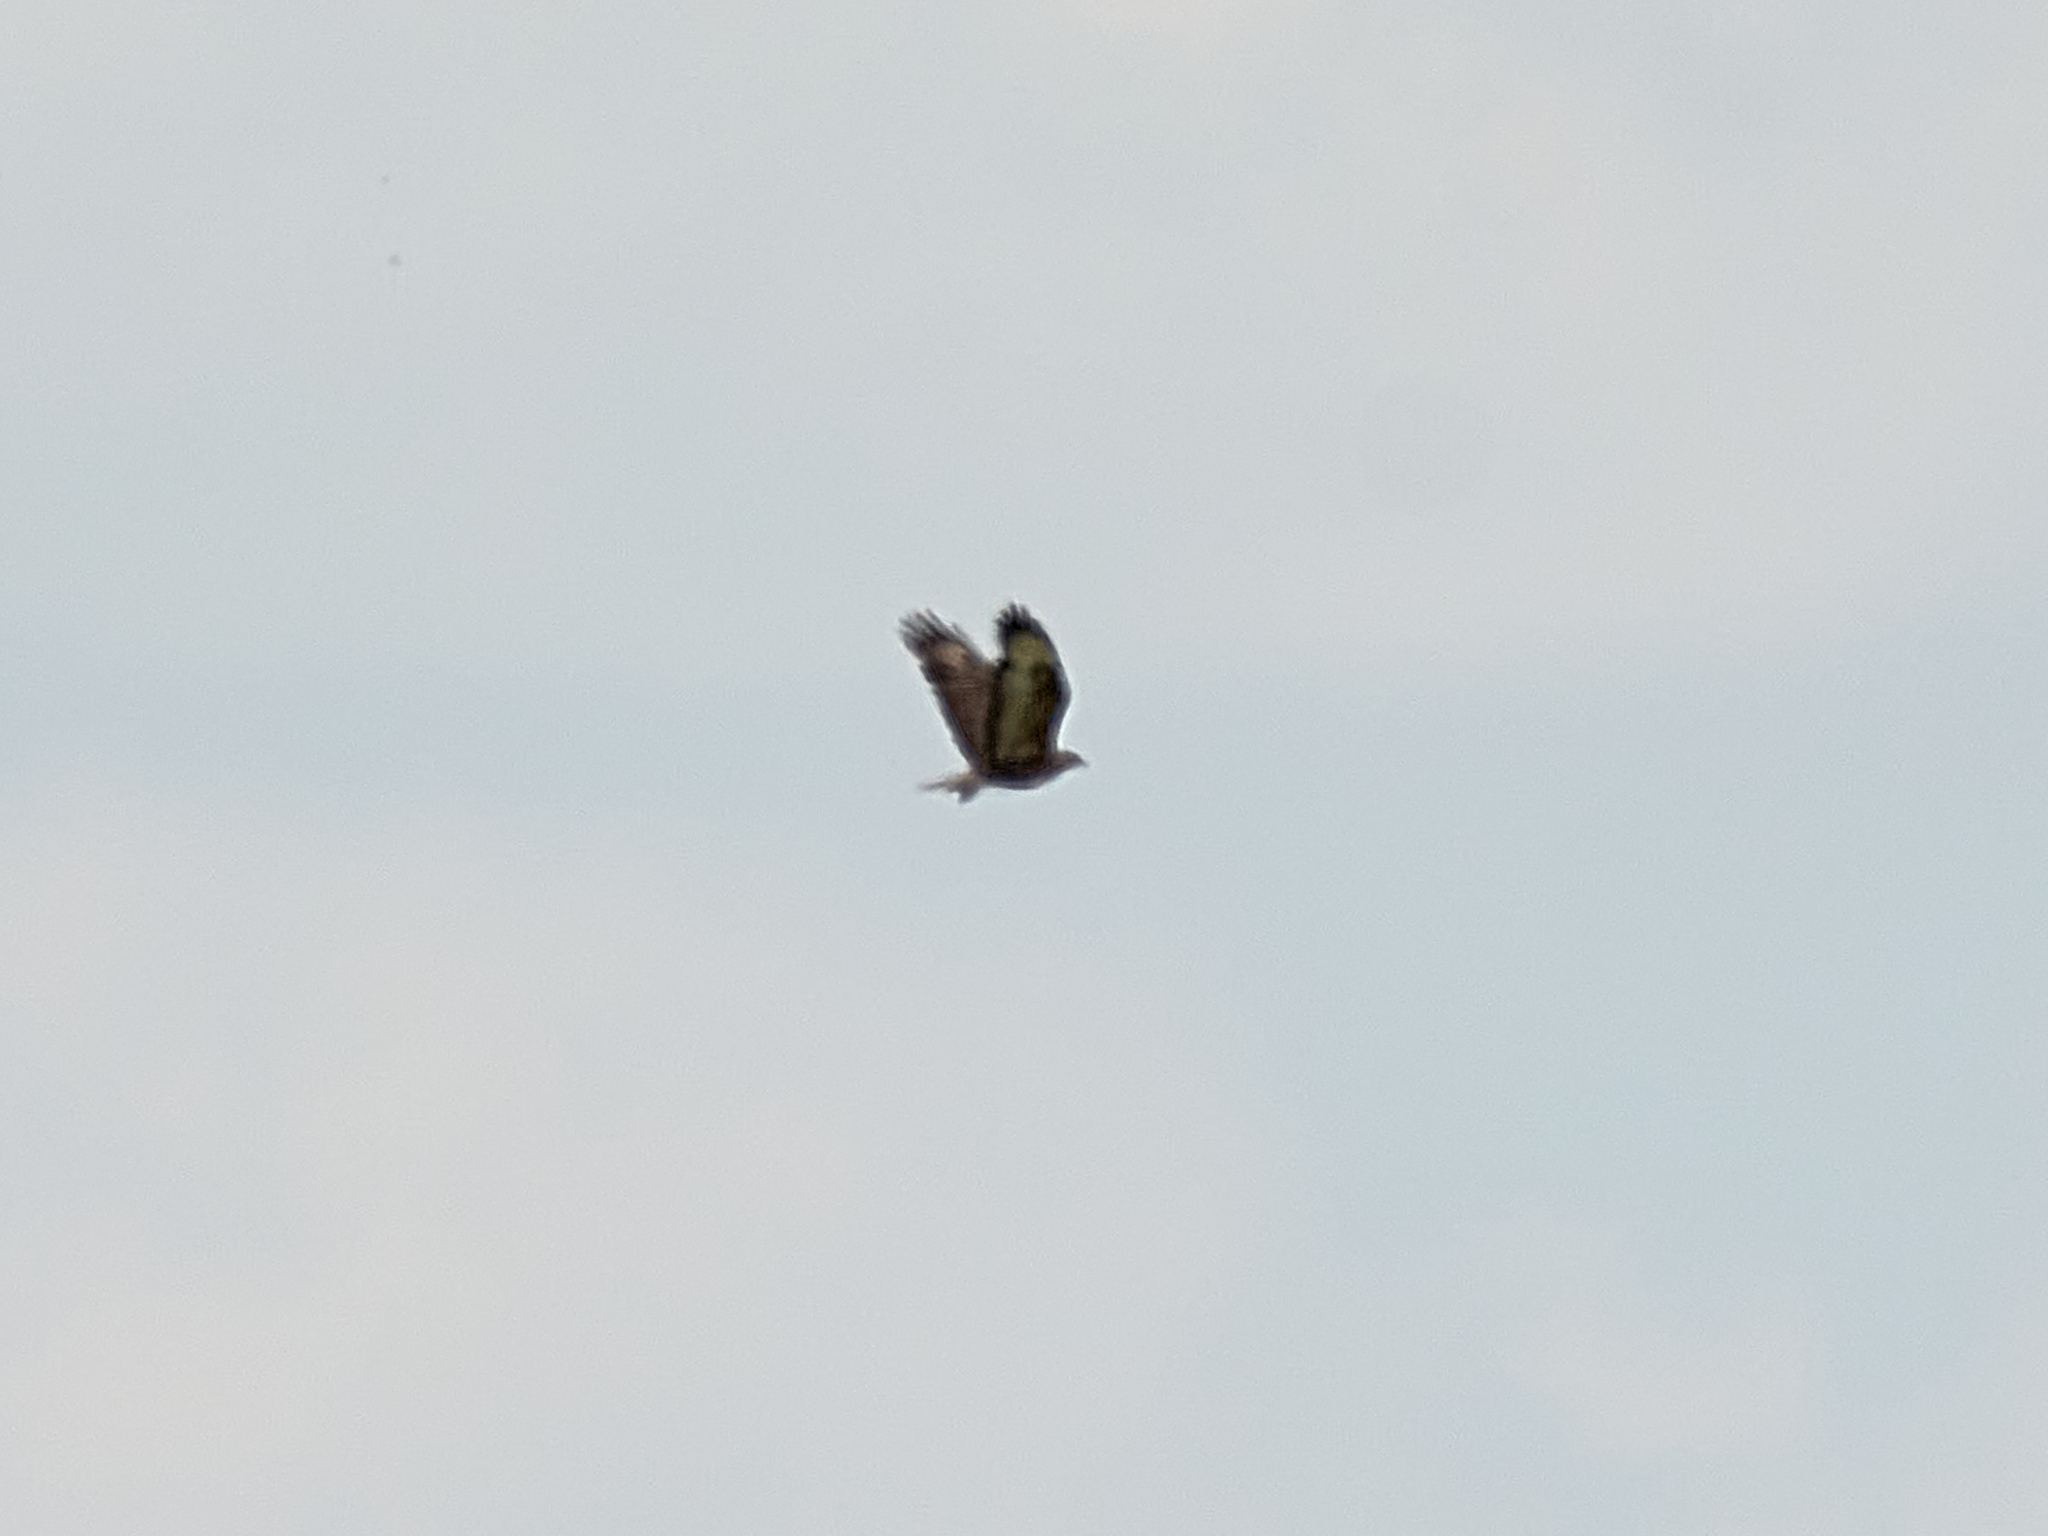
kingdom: Animalia
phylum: Chordata
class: Aves
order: Accipitriformes
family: Accipitridae
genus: Buteo
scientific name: Buteo buteo
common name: Common buzzard
